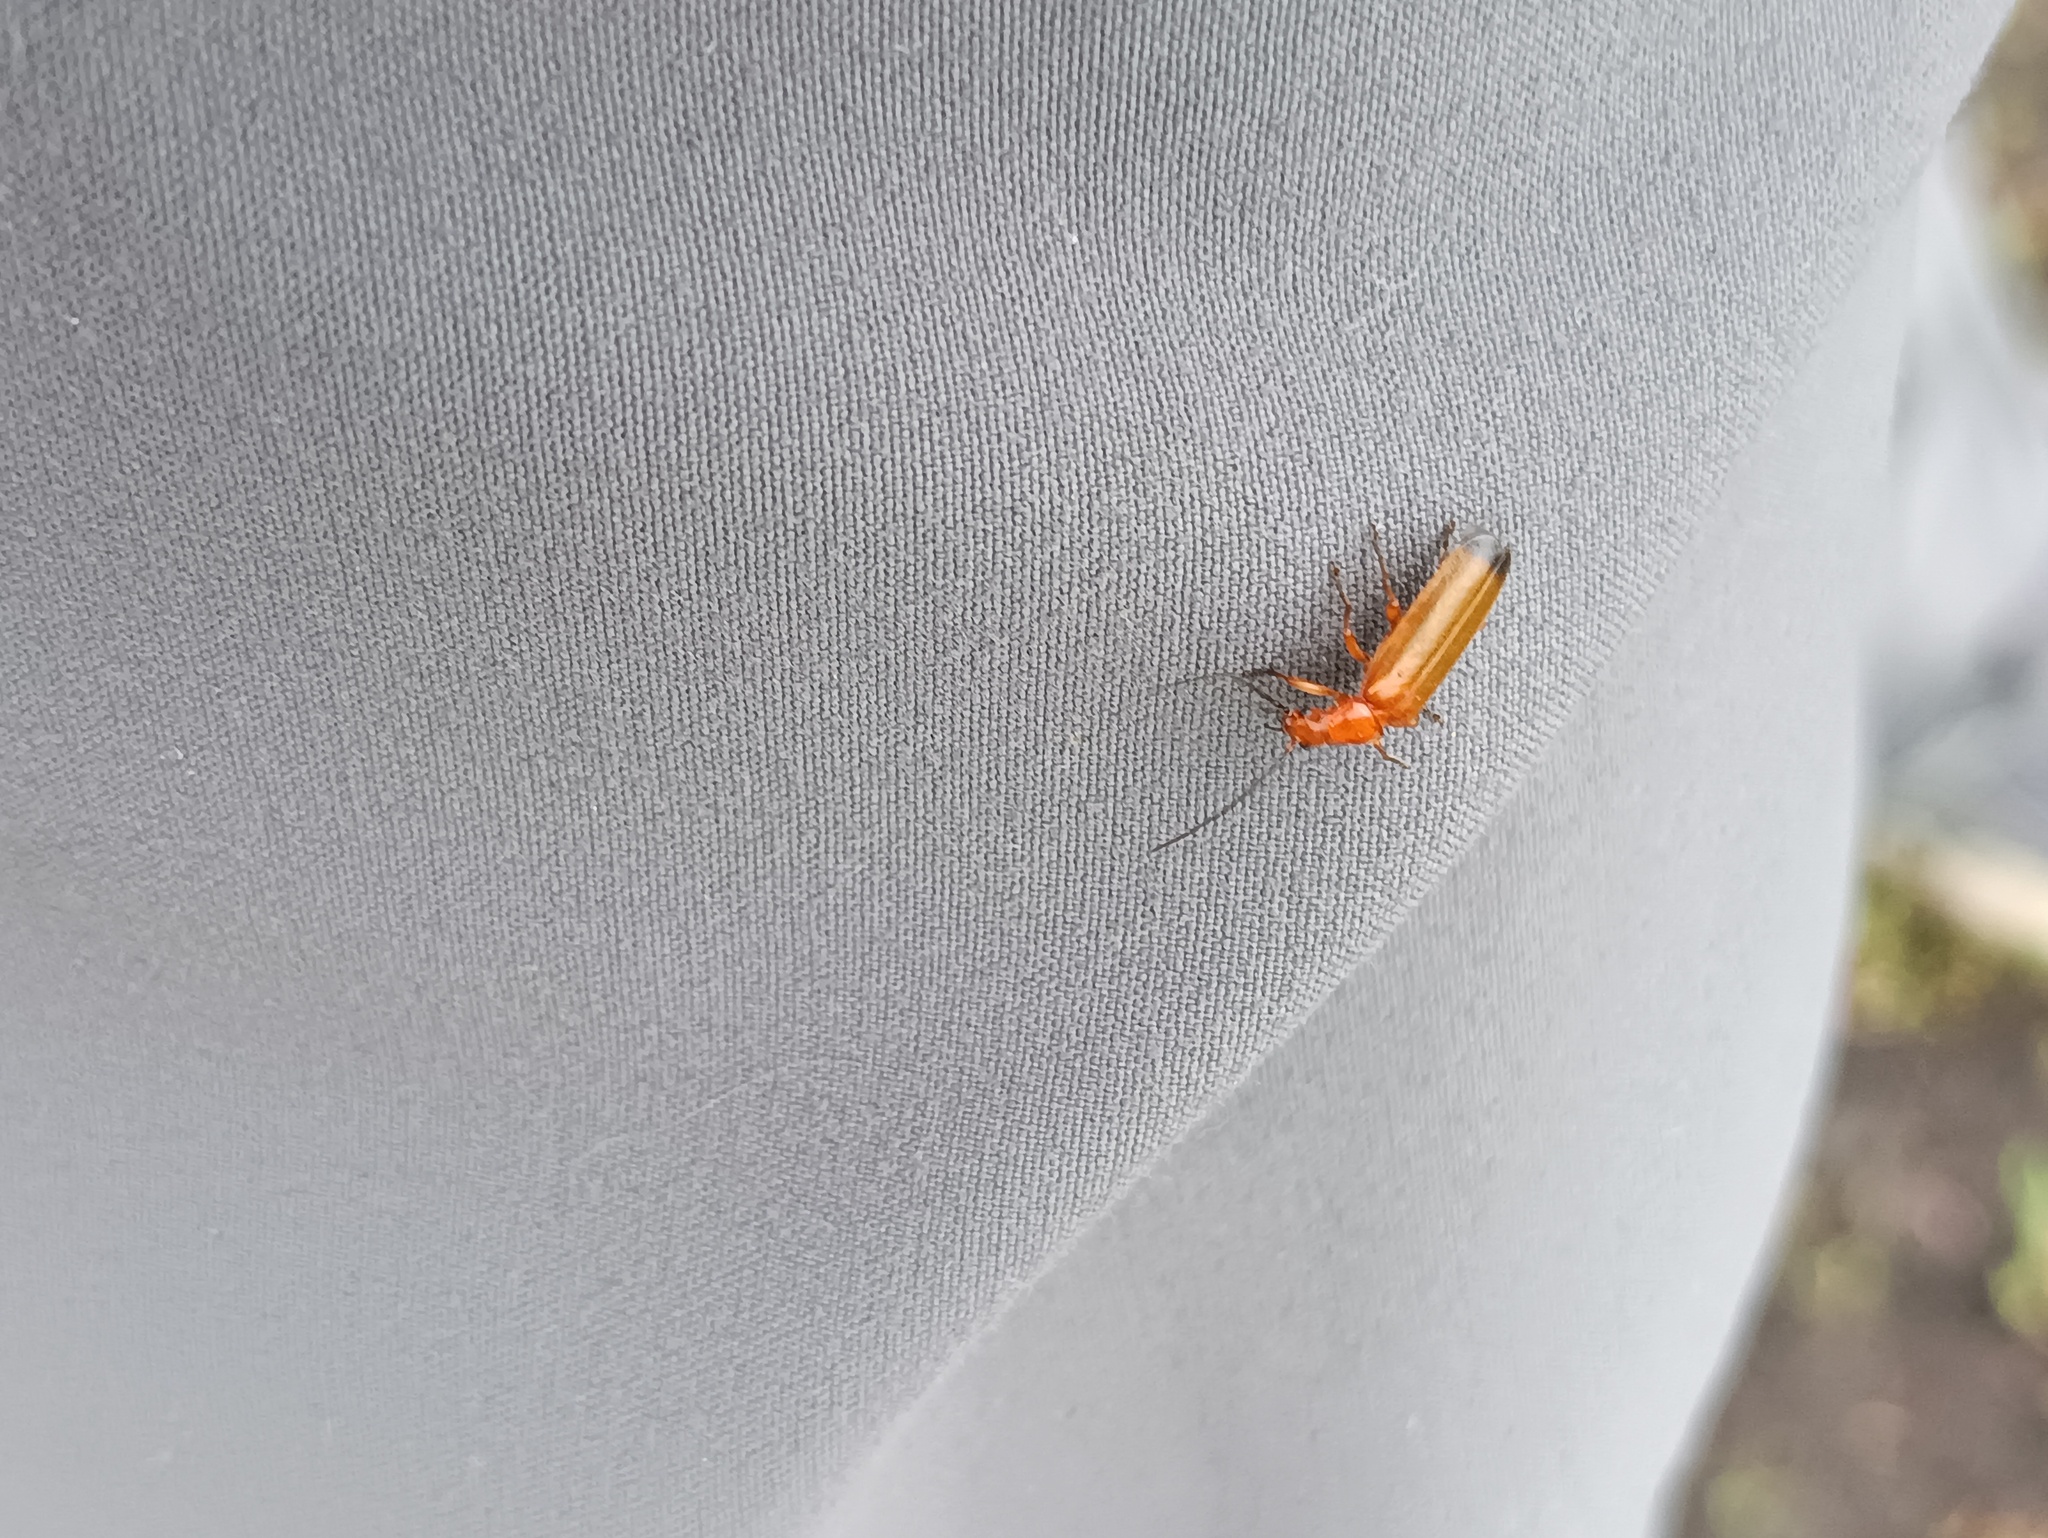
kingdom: Animalia
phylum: Arthropoda
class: Insecta
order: Coleoptera
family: Cantharidae
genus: Rhagonycha
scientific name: Rhagonycha fulva
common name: Common red soldier beetle
